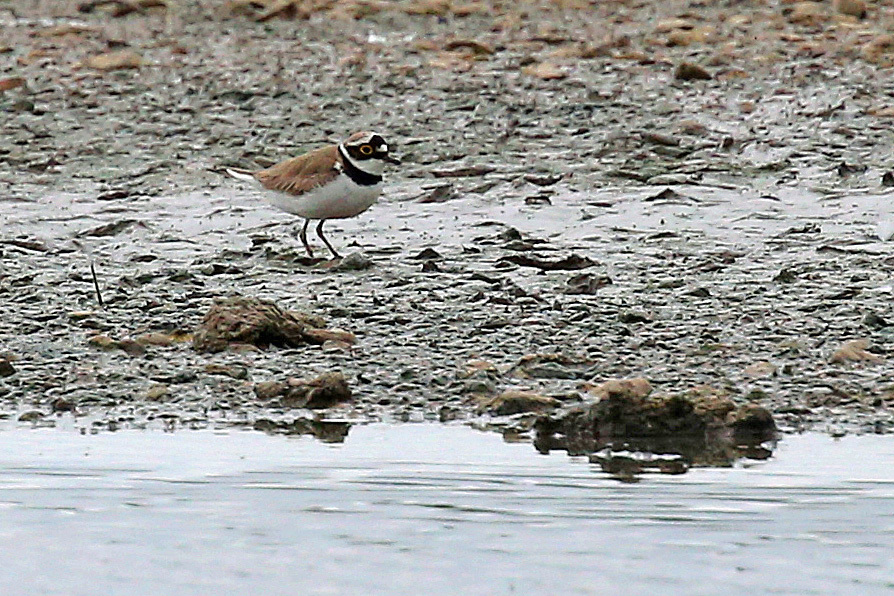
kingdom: Animalia
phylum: Chordata
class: Aves
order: Charadriiformes
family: Charadriidae
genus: Charadrius
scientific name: Charadrius dubius
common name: Little ringed plover
